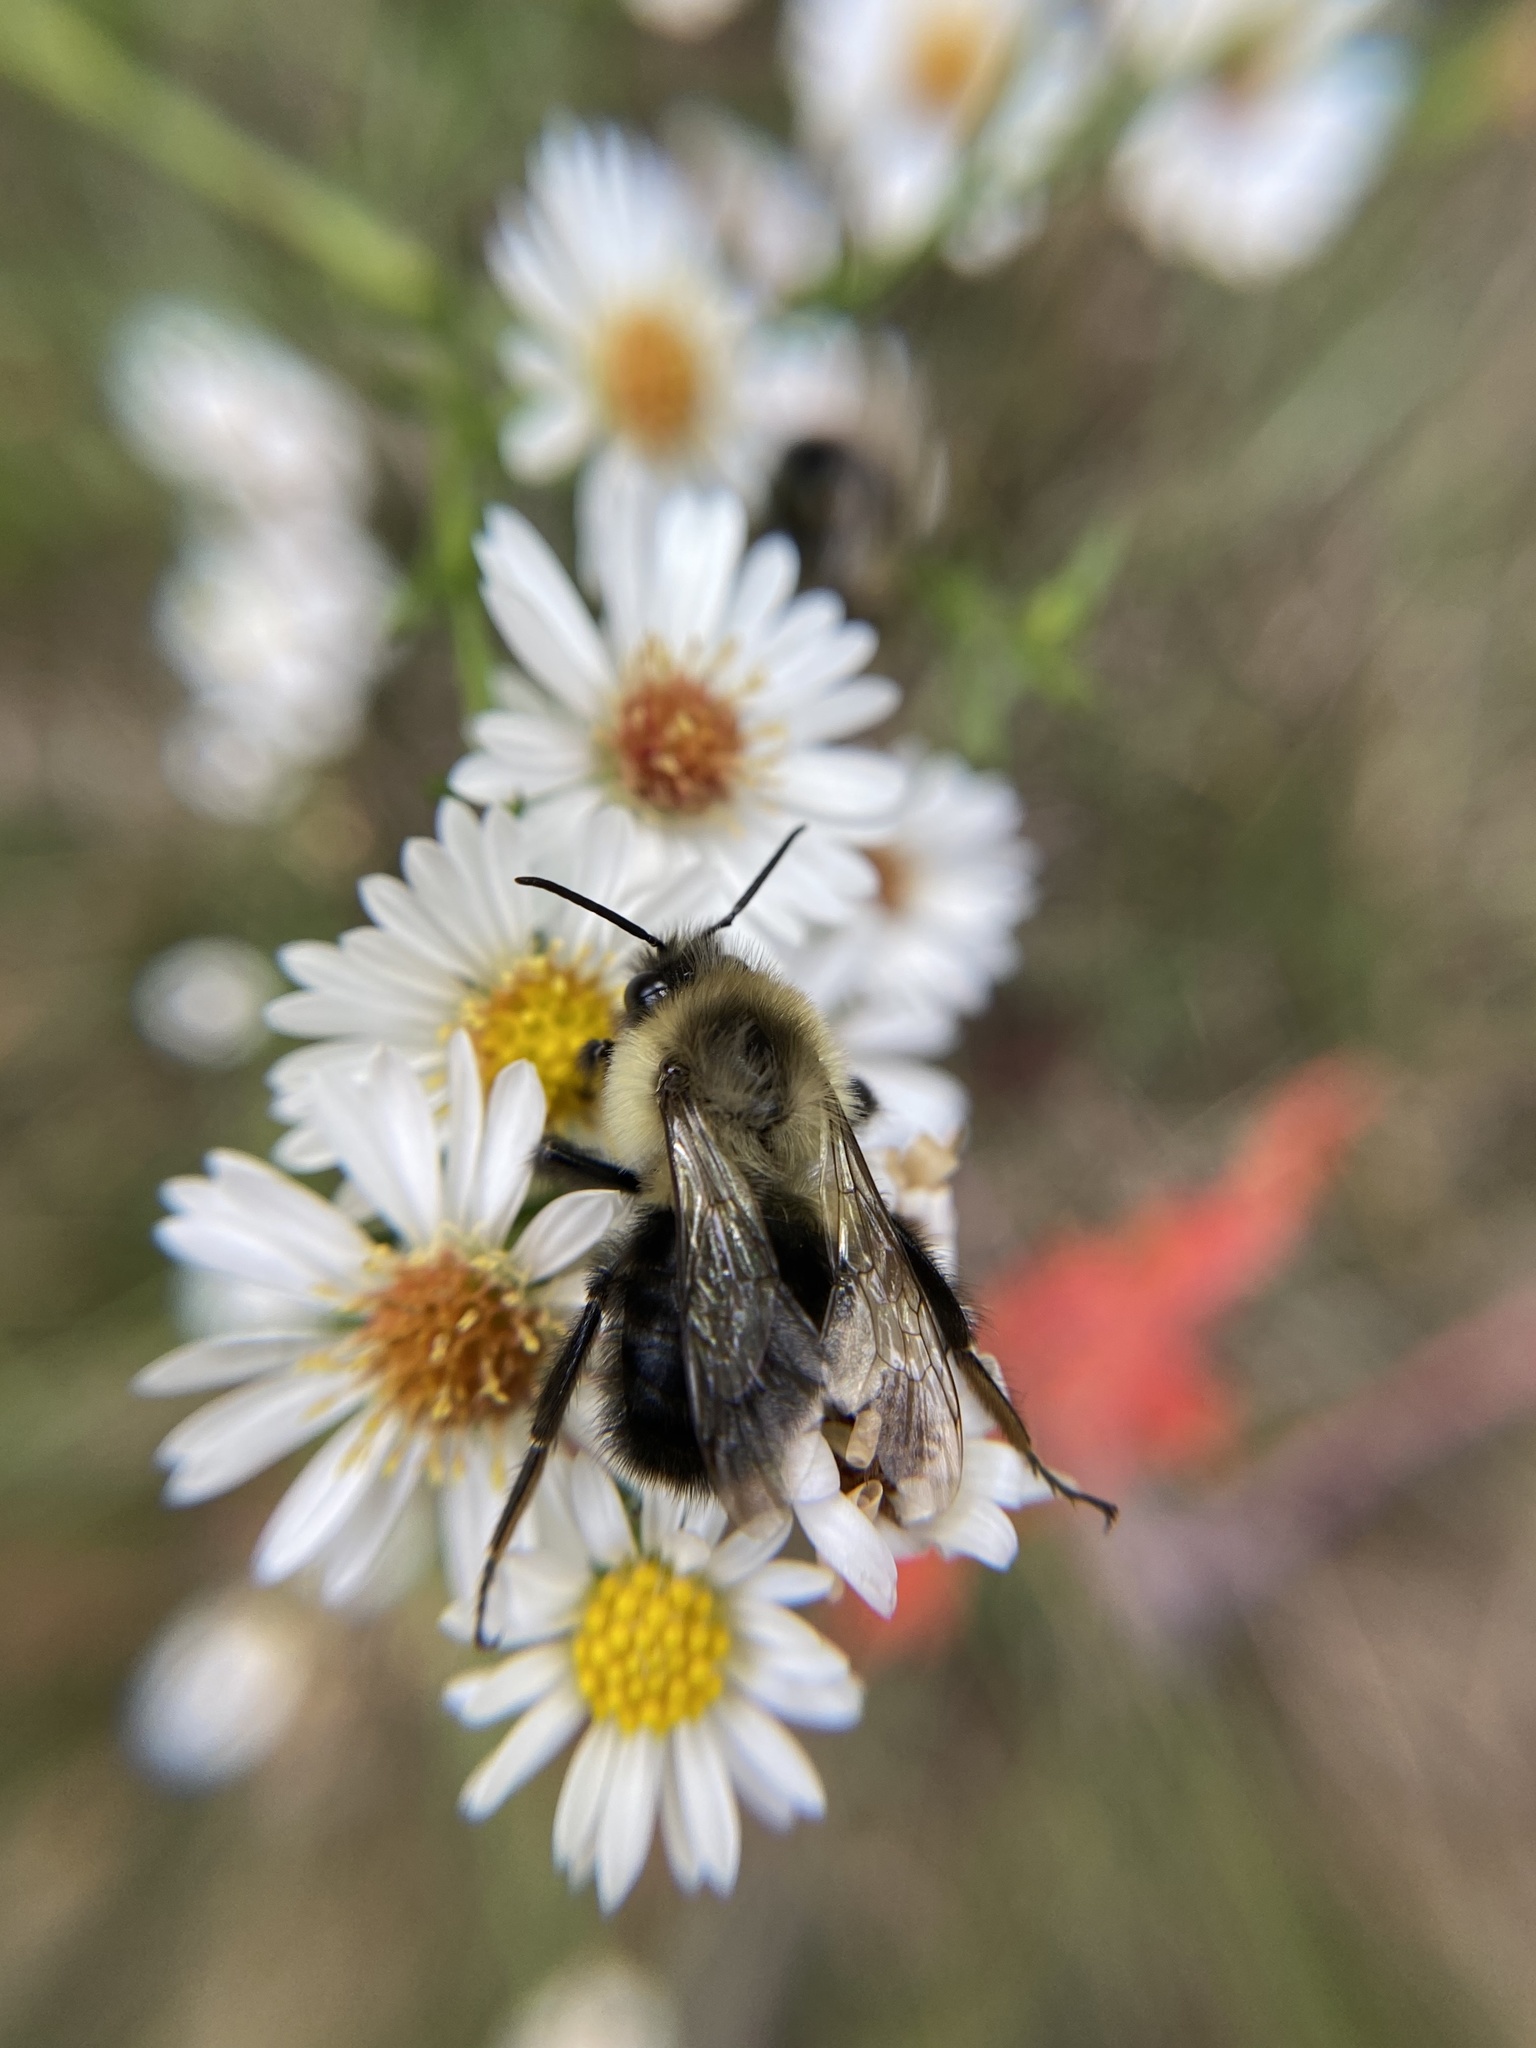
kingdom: Animalia
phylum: Arthropoda
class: Insecta
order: Hymenoptera
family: Apidae
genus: Bombus
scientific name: Bombus impatiens
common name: Common eastern bumble bee
